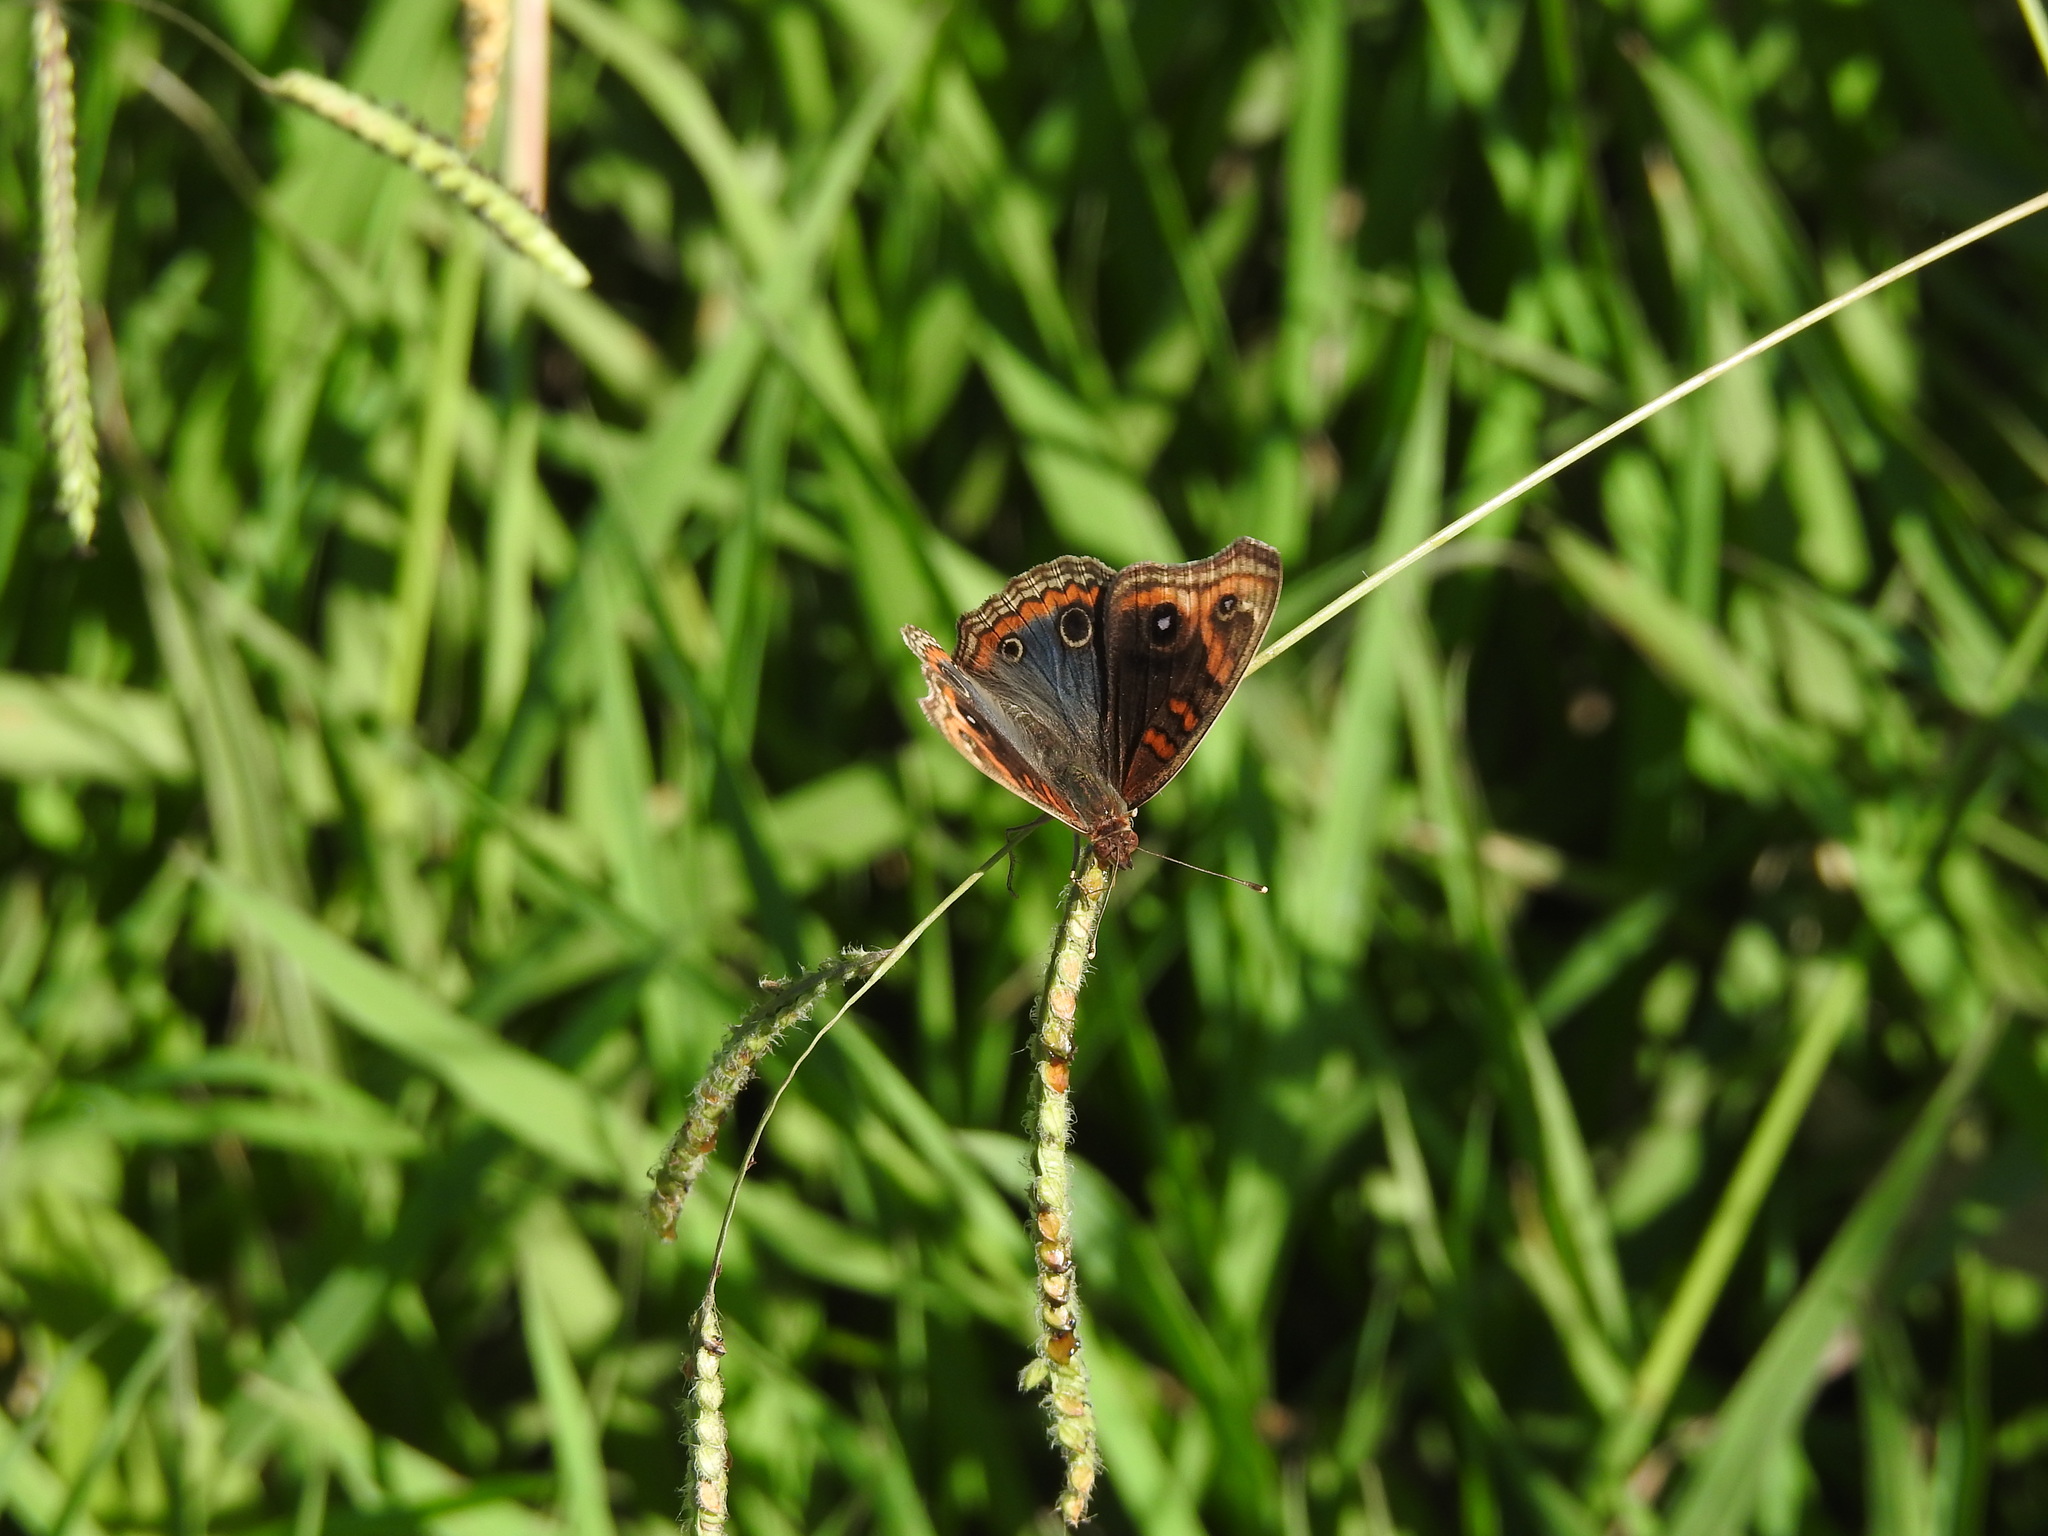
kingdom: Animalia
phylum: Arthropoda
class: Insecta
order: Lepidoptera
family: Nymphalidae
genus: Junonia
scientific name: Junonia lavinia
